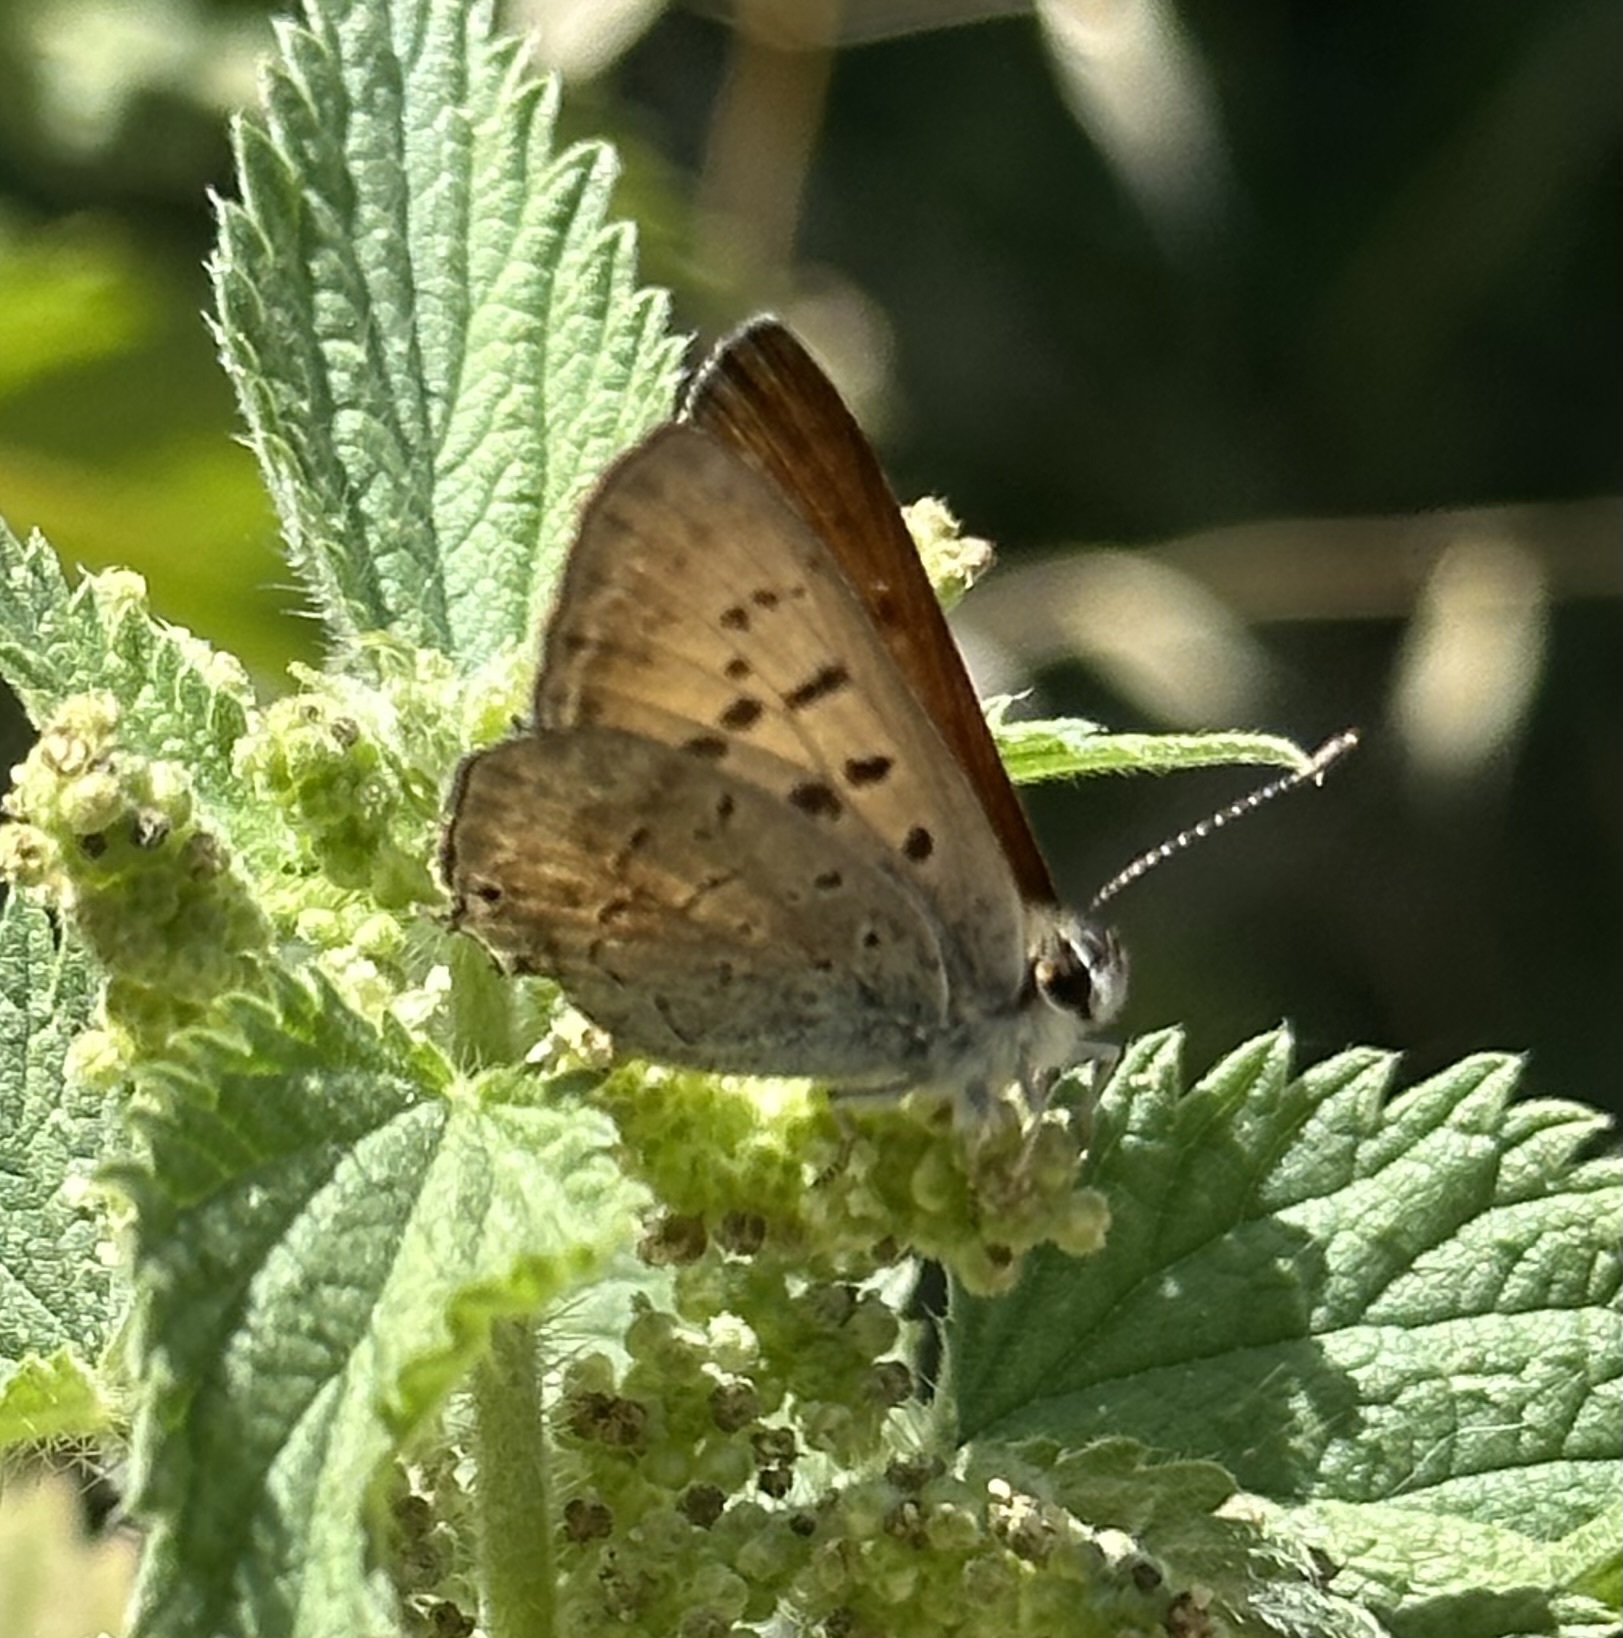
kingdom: Animalia
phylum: Arthropoda
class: Insecta
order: Lepidoptera
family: Lycaenidae
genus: Tharsalea
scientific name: Tharsalea arota
